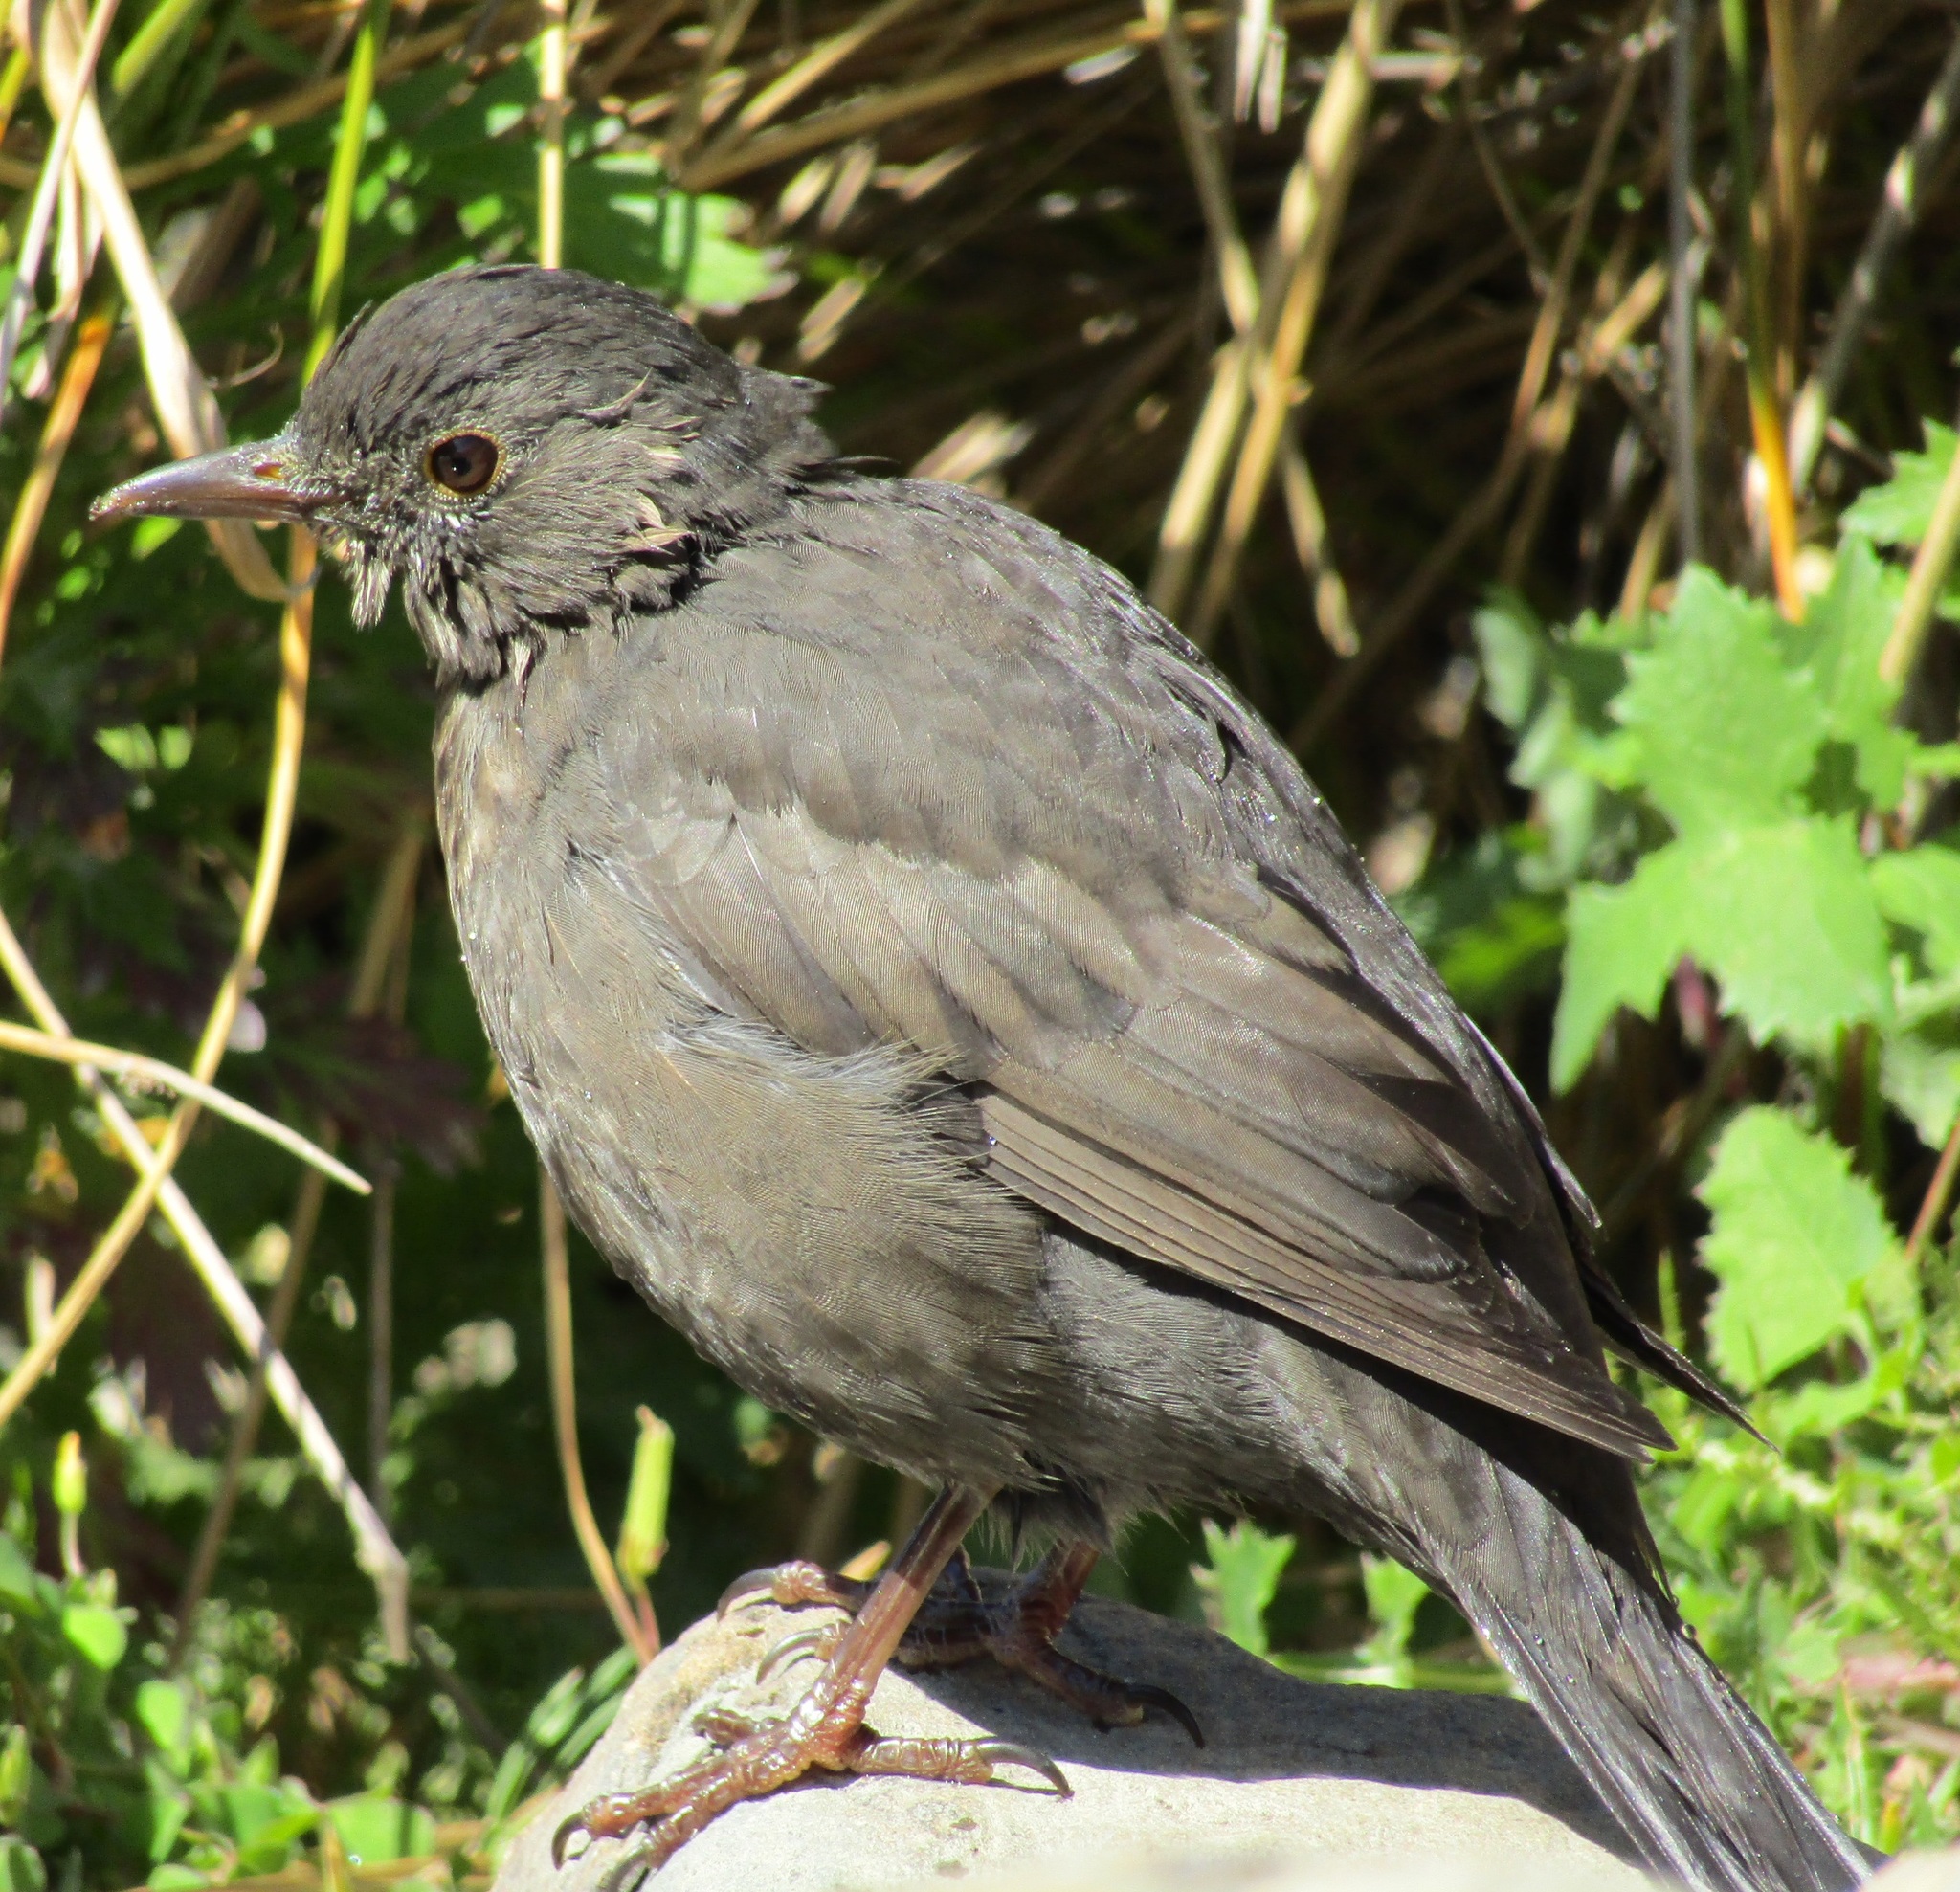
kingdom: Animalia
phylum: Chordata
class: Aves
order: Passeriformes
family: Turdidae
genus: Turdus
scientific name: Turdus merula
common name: Common blackbird
